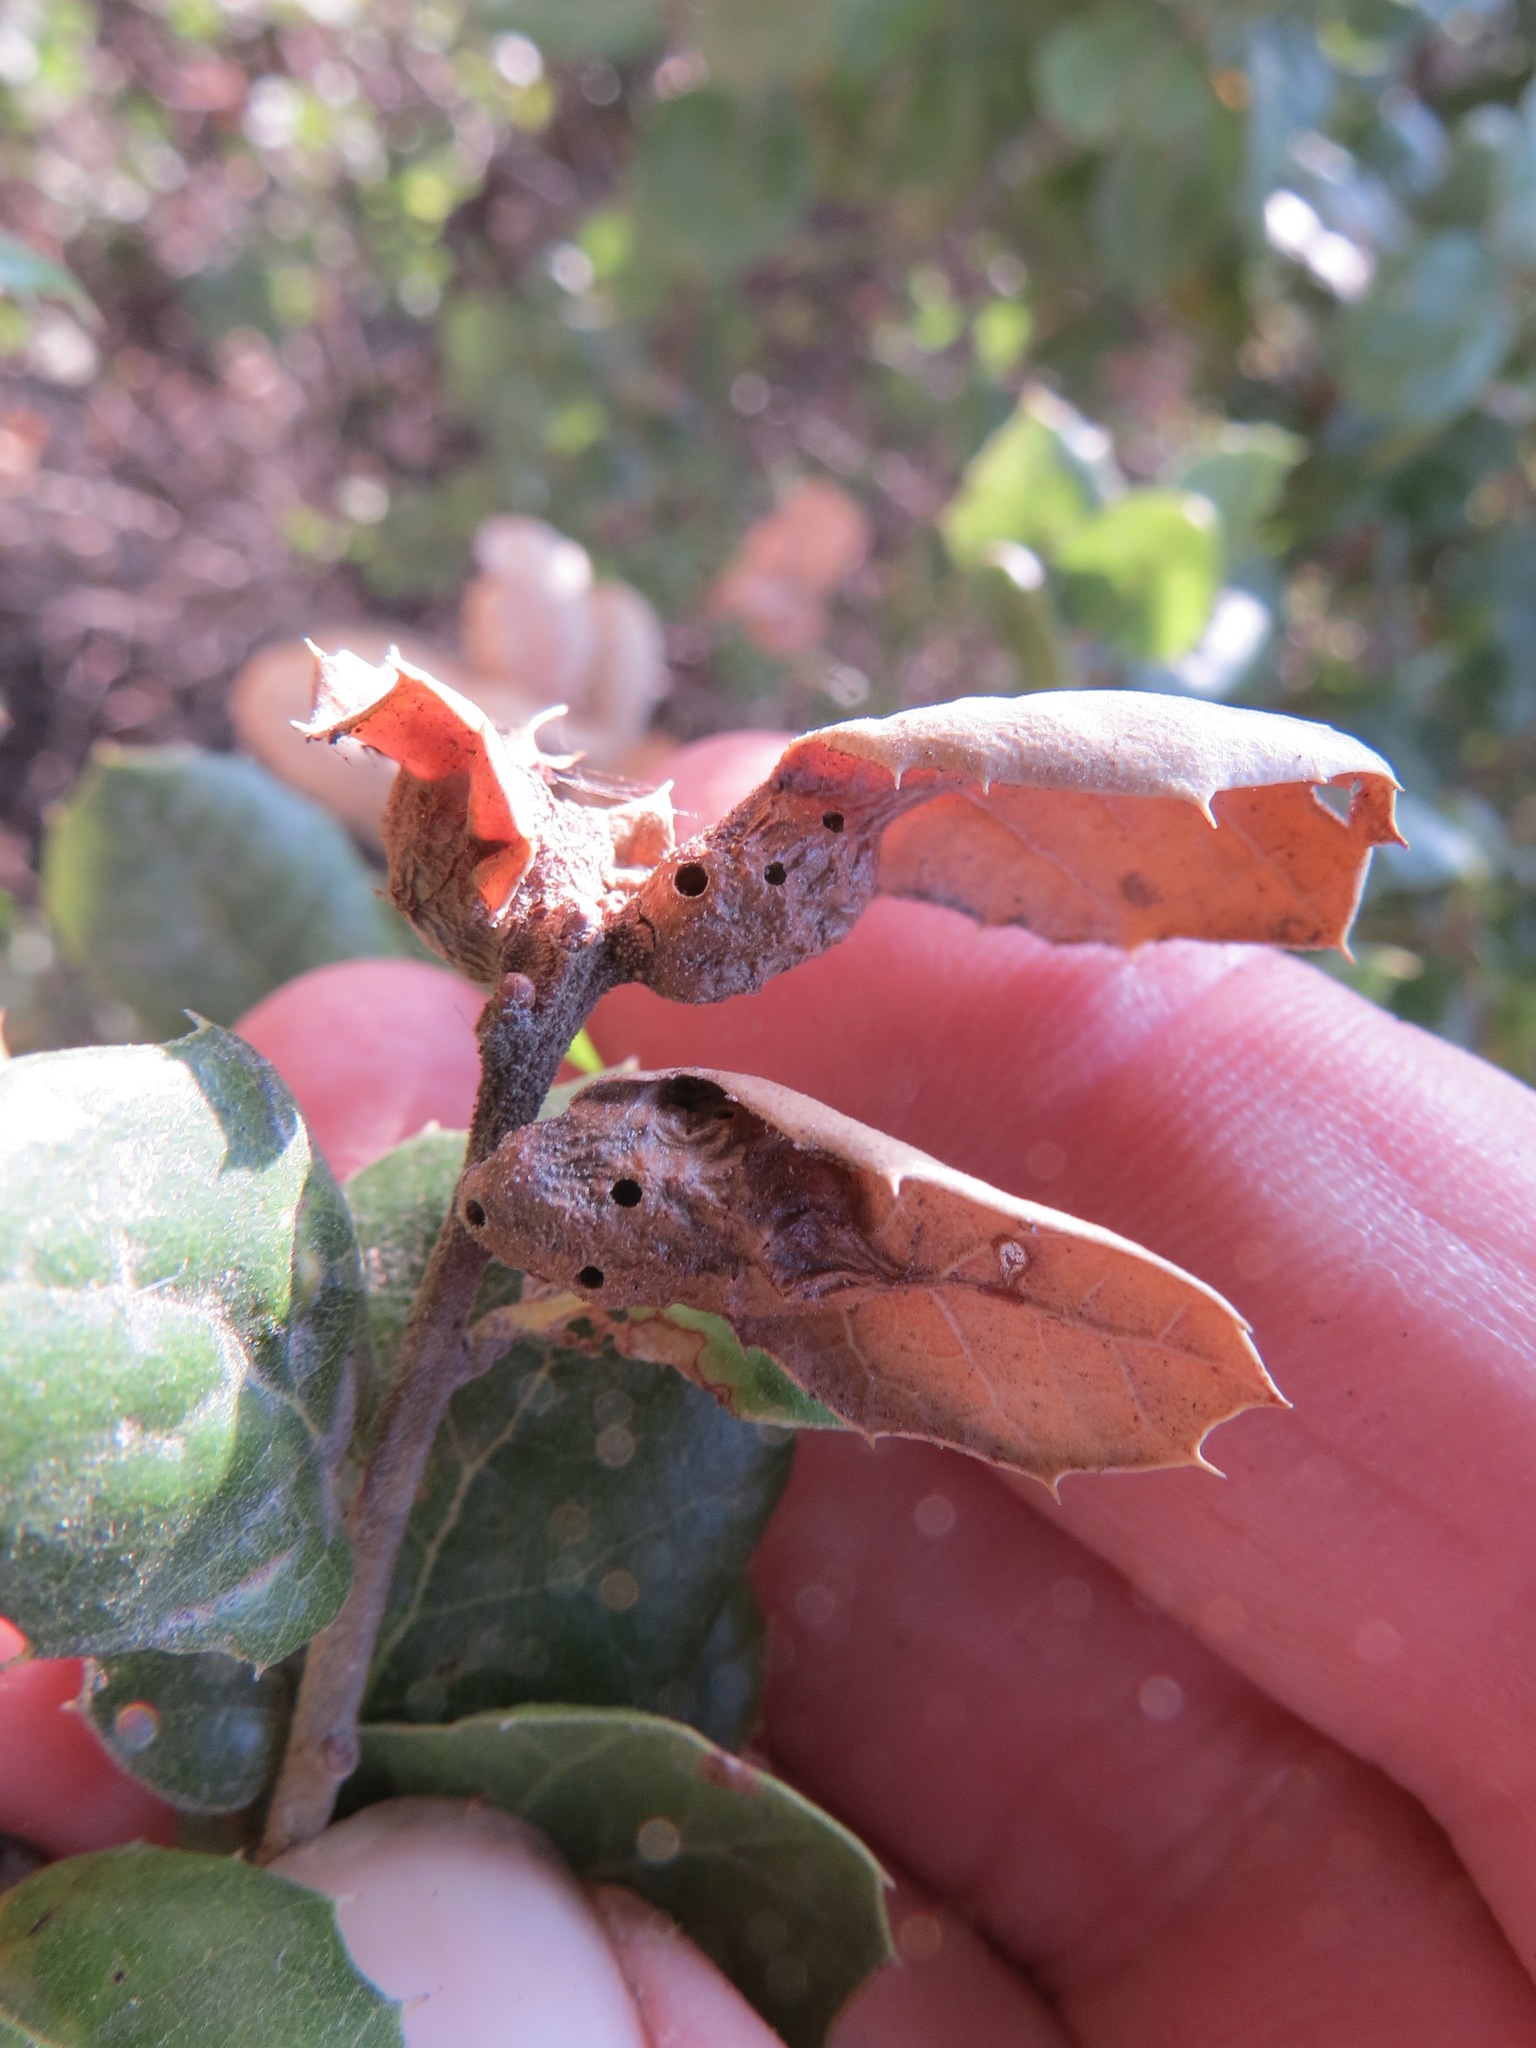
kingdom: Animalia
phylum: Arthropoda
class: Insecta
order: Hymenoptera
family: Cynipidae
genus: Melikaiella
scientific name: Melikaiella
